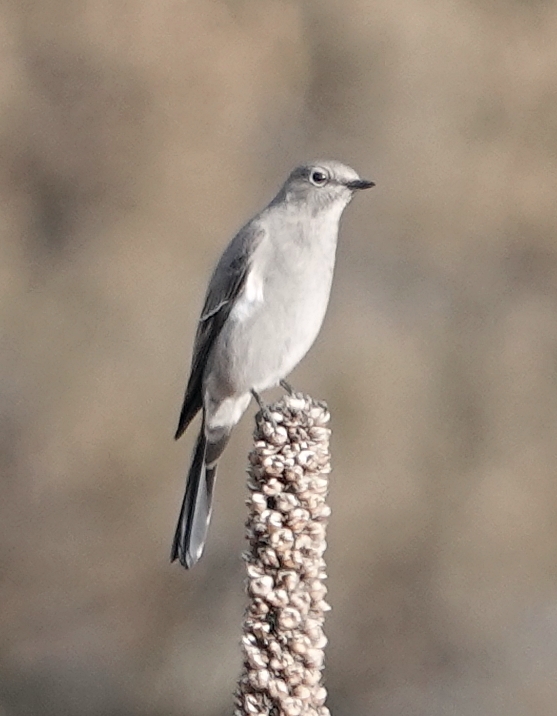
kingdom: Animalia
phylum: Chordata
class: Aves
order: Passeriformes
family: Turdidae
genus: Myadestes
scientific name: Myadestes townsendi
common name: Townsend's solitaire
